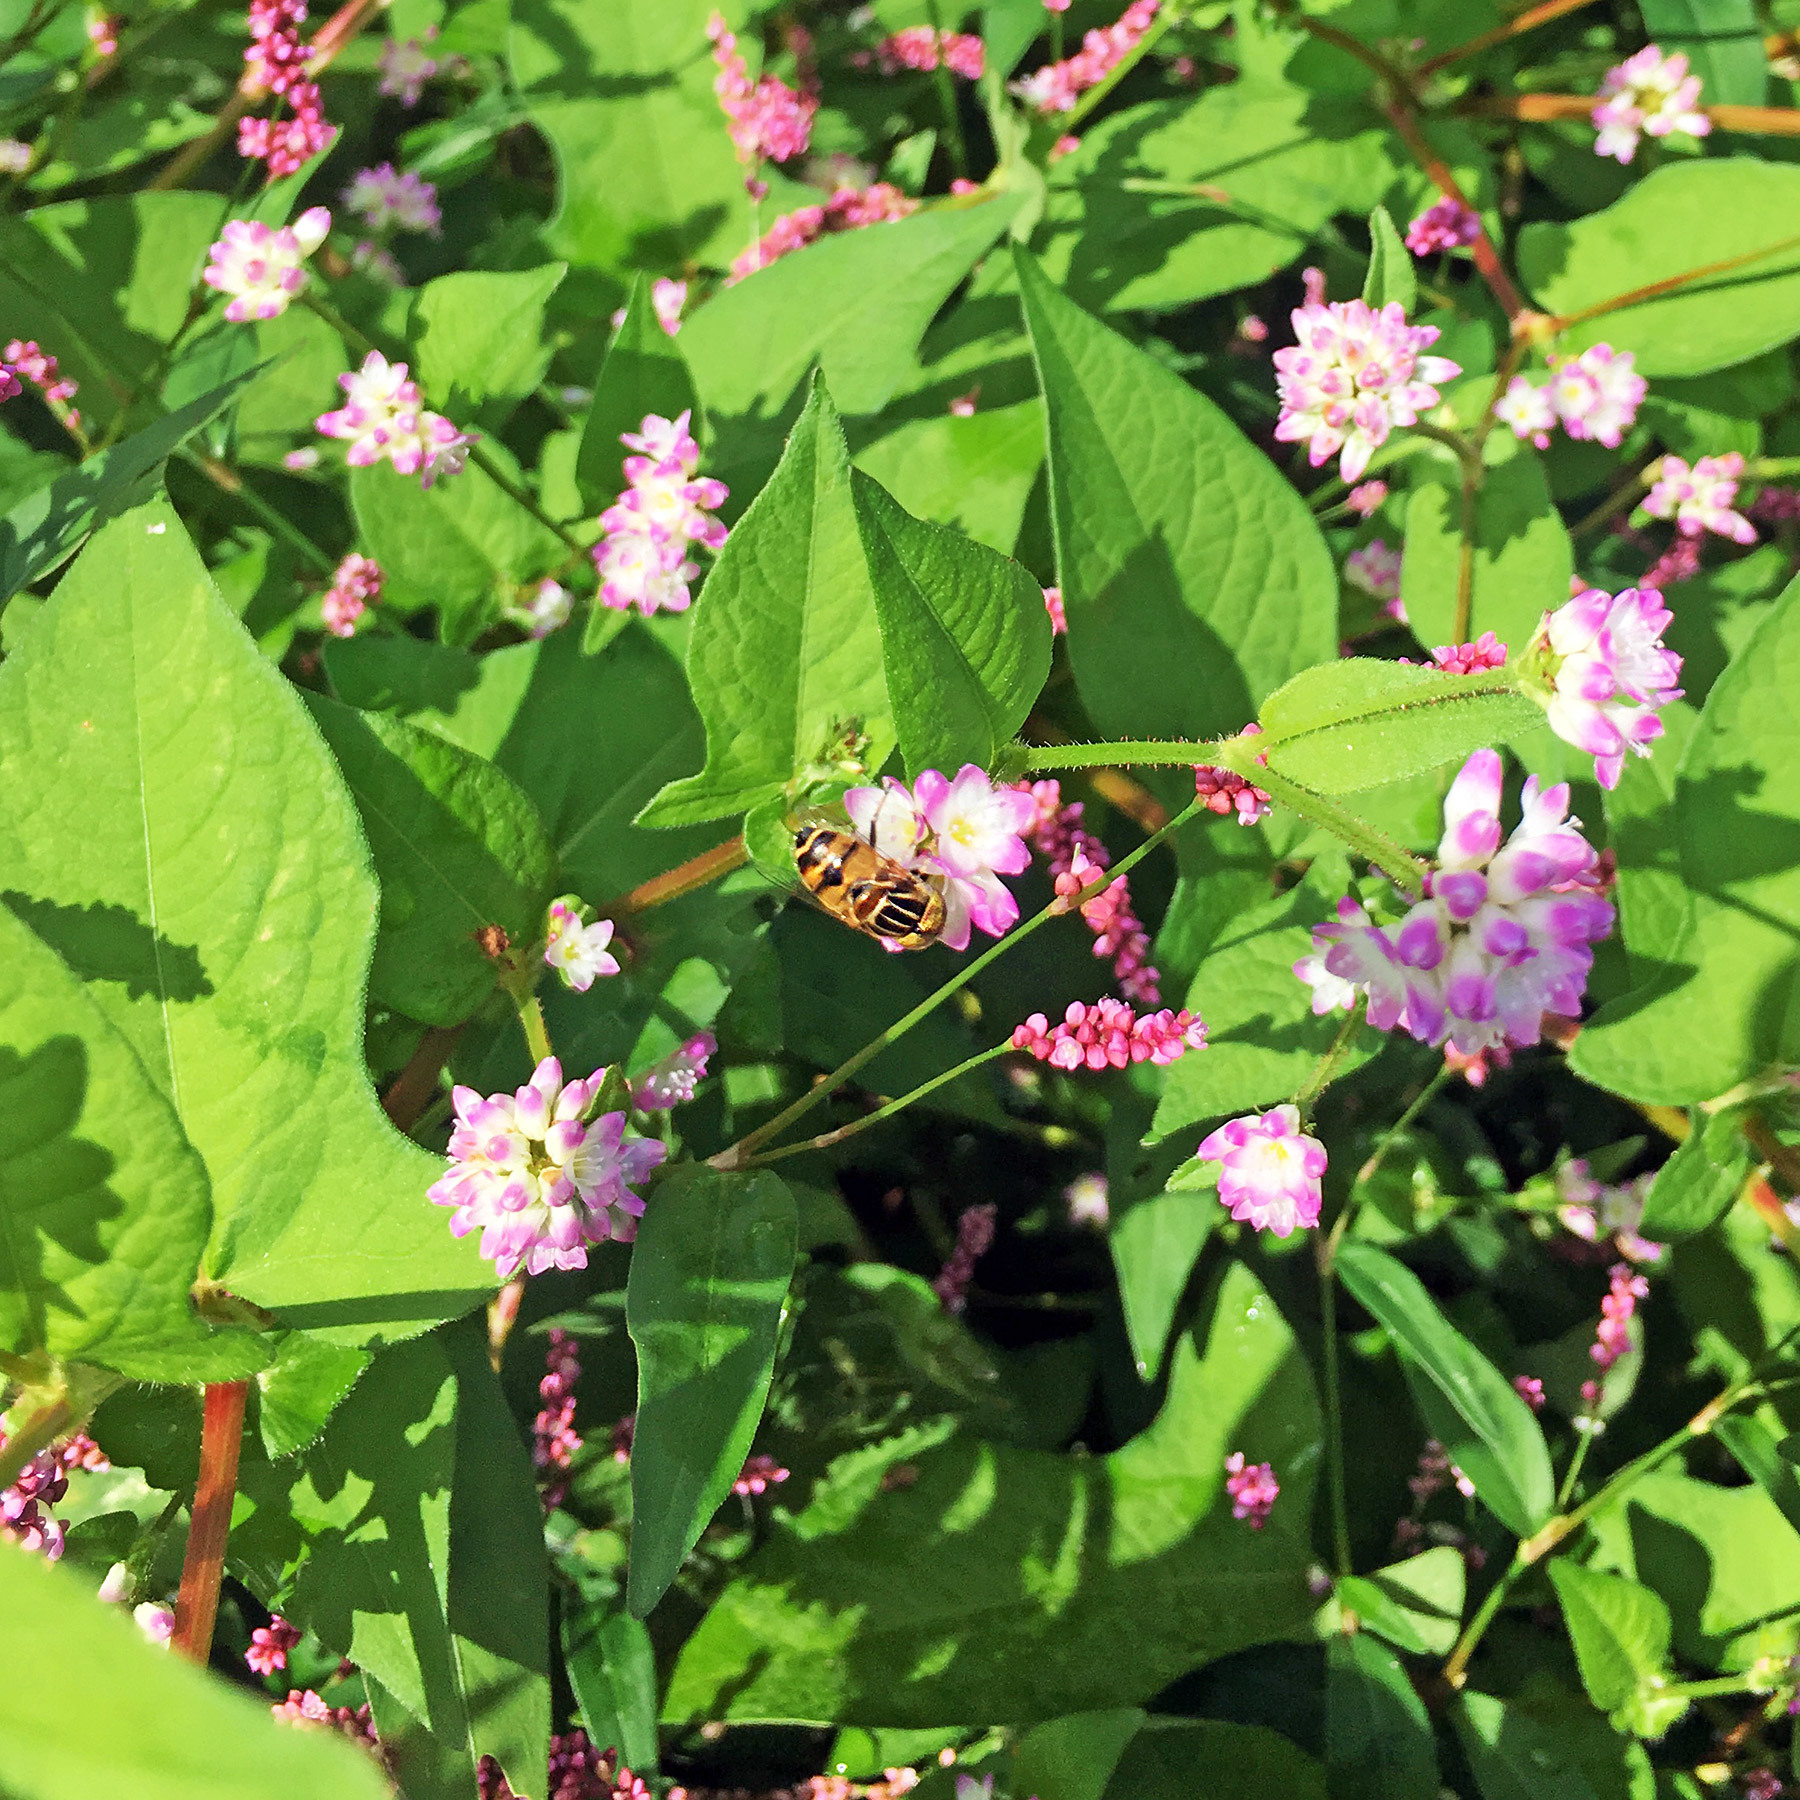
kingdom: Animalia
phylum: Arthropoda
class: Insecta
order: Diptera
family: Syrphidae
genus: Eristalinus
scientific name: Eristalinus quinquestriatus
